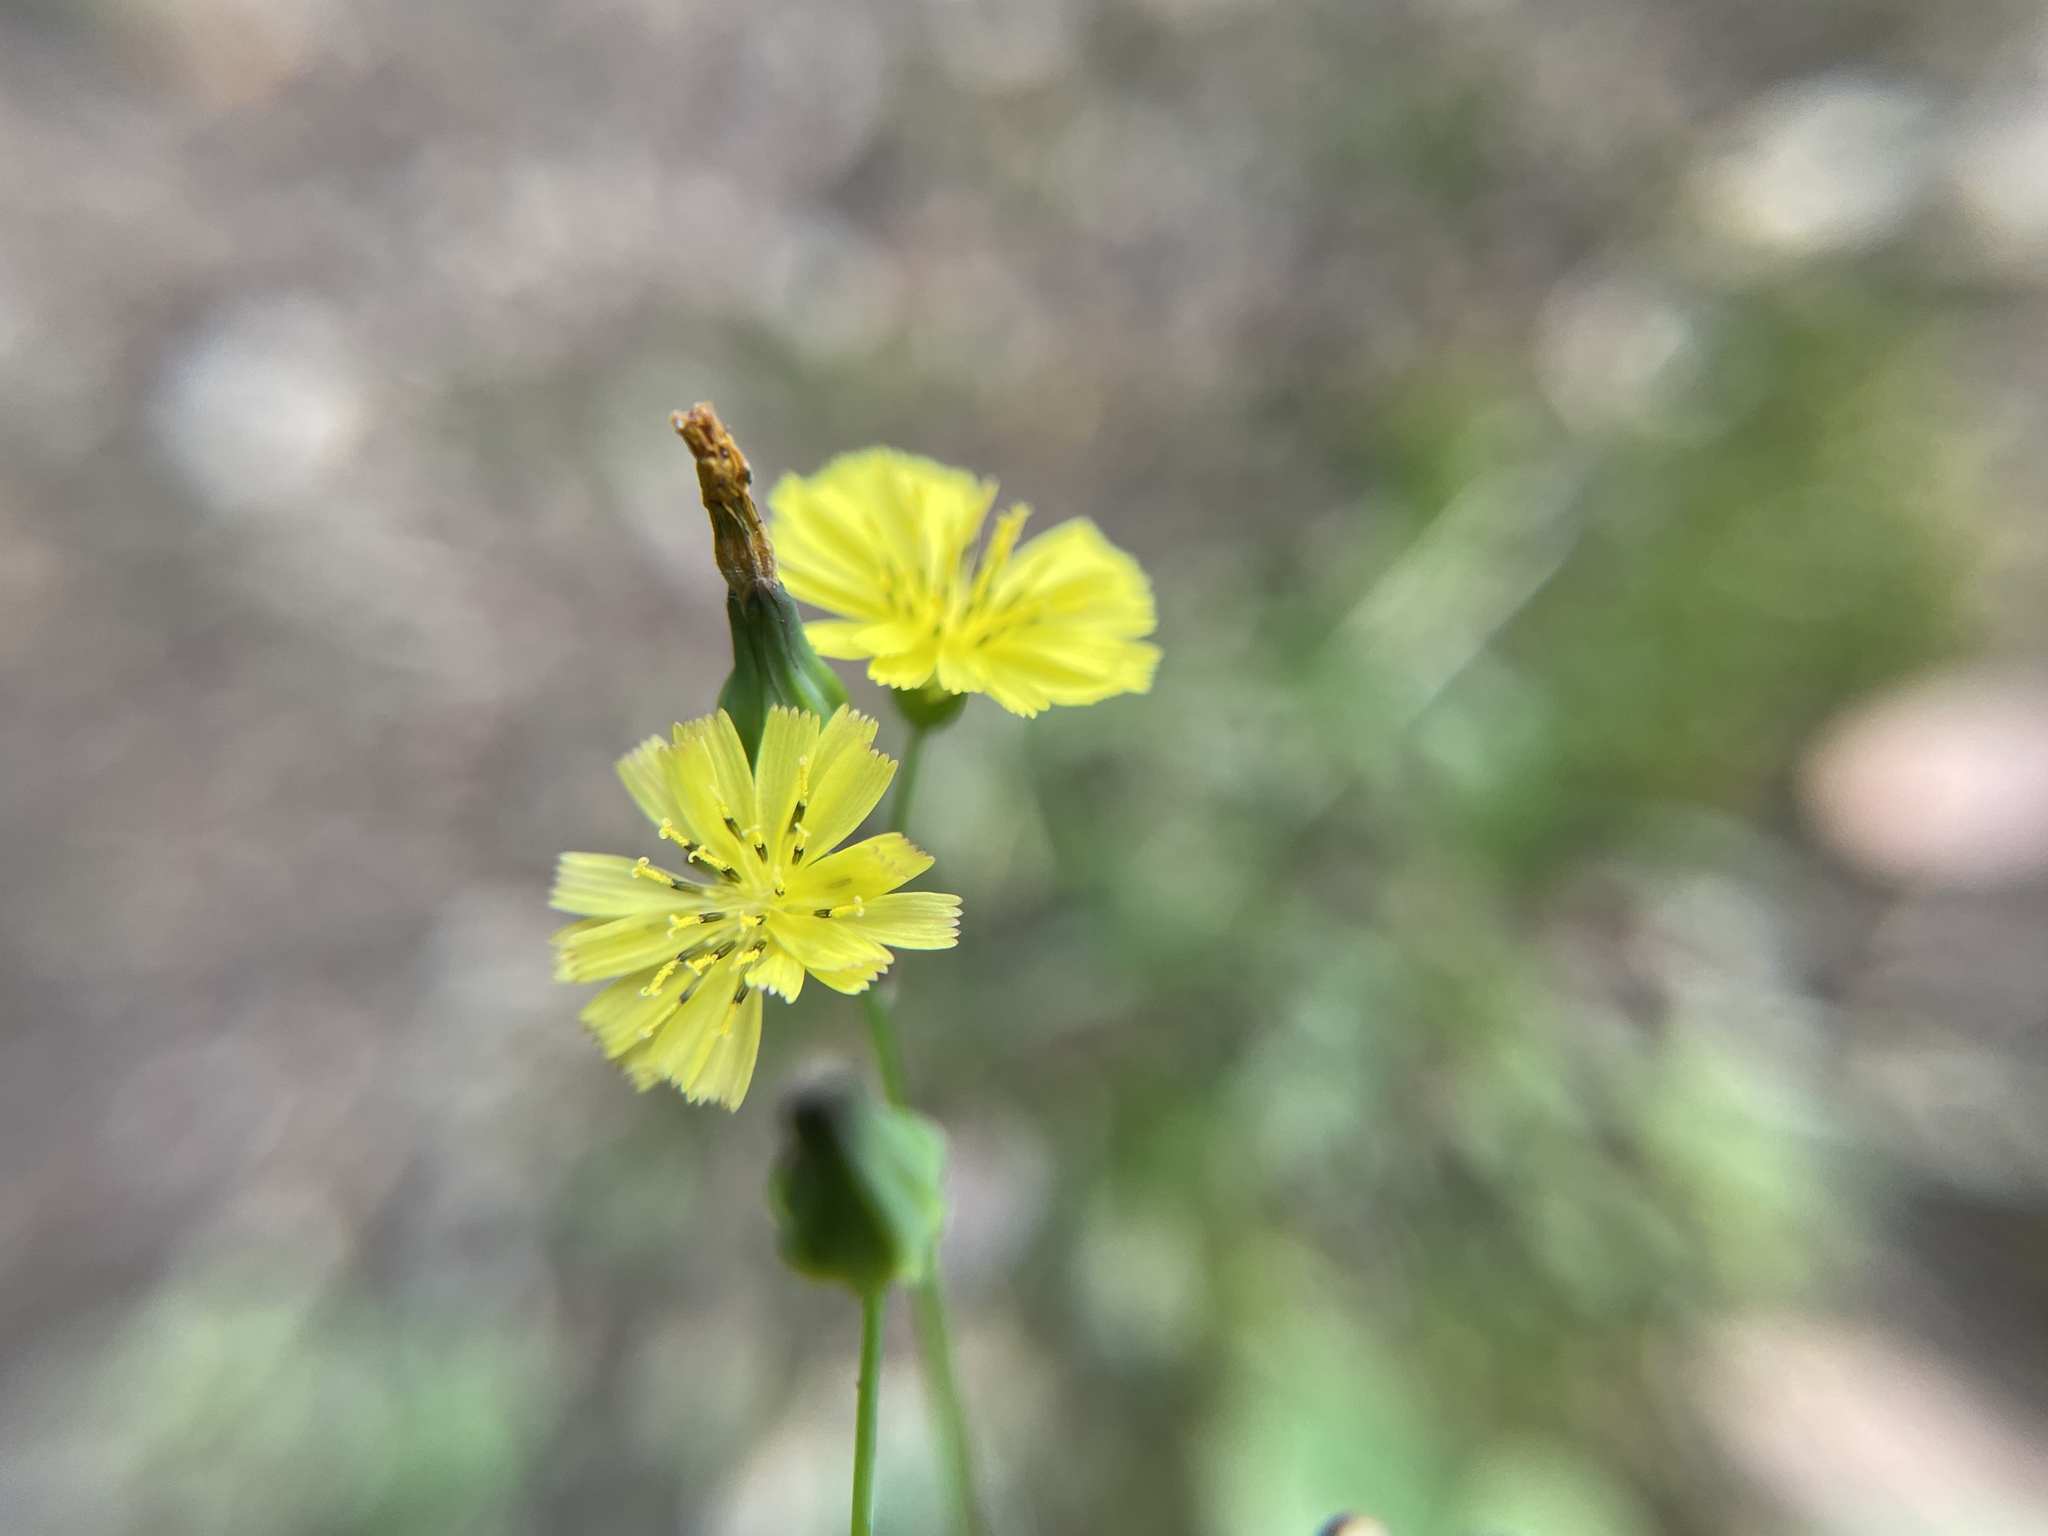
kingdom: Plantae
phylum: Tracheophyta
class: Magnoliopsida
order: Asterales
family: Asteraceae
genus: Youngia
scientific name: Youngia japonica
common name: Oriental false hawksbeard
